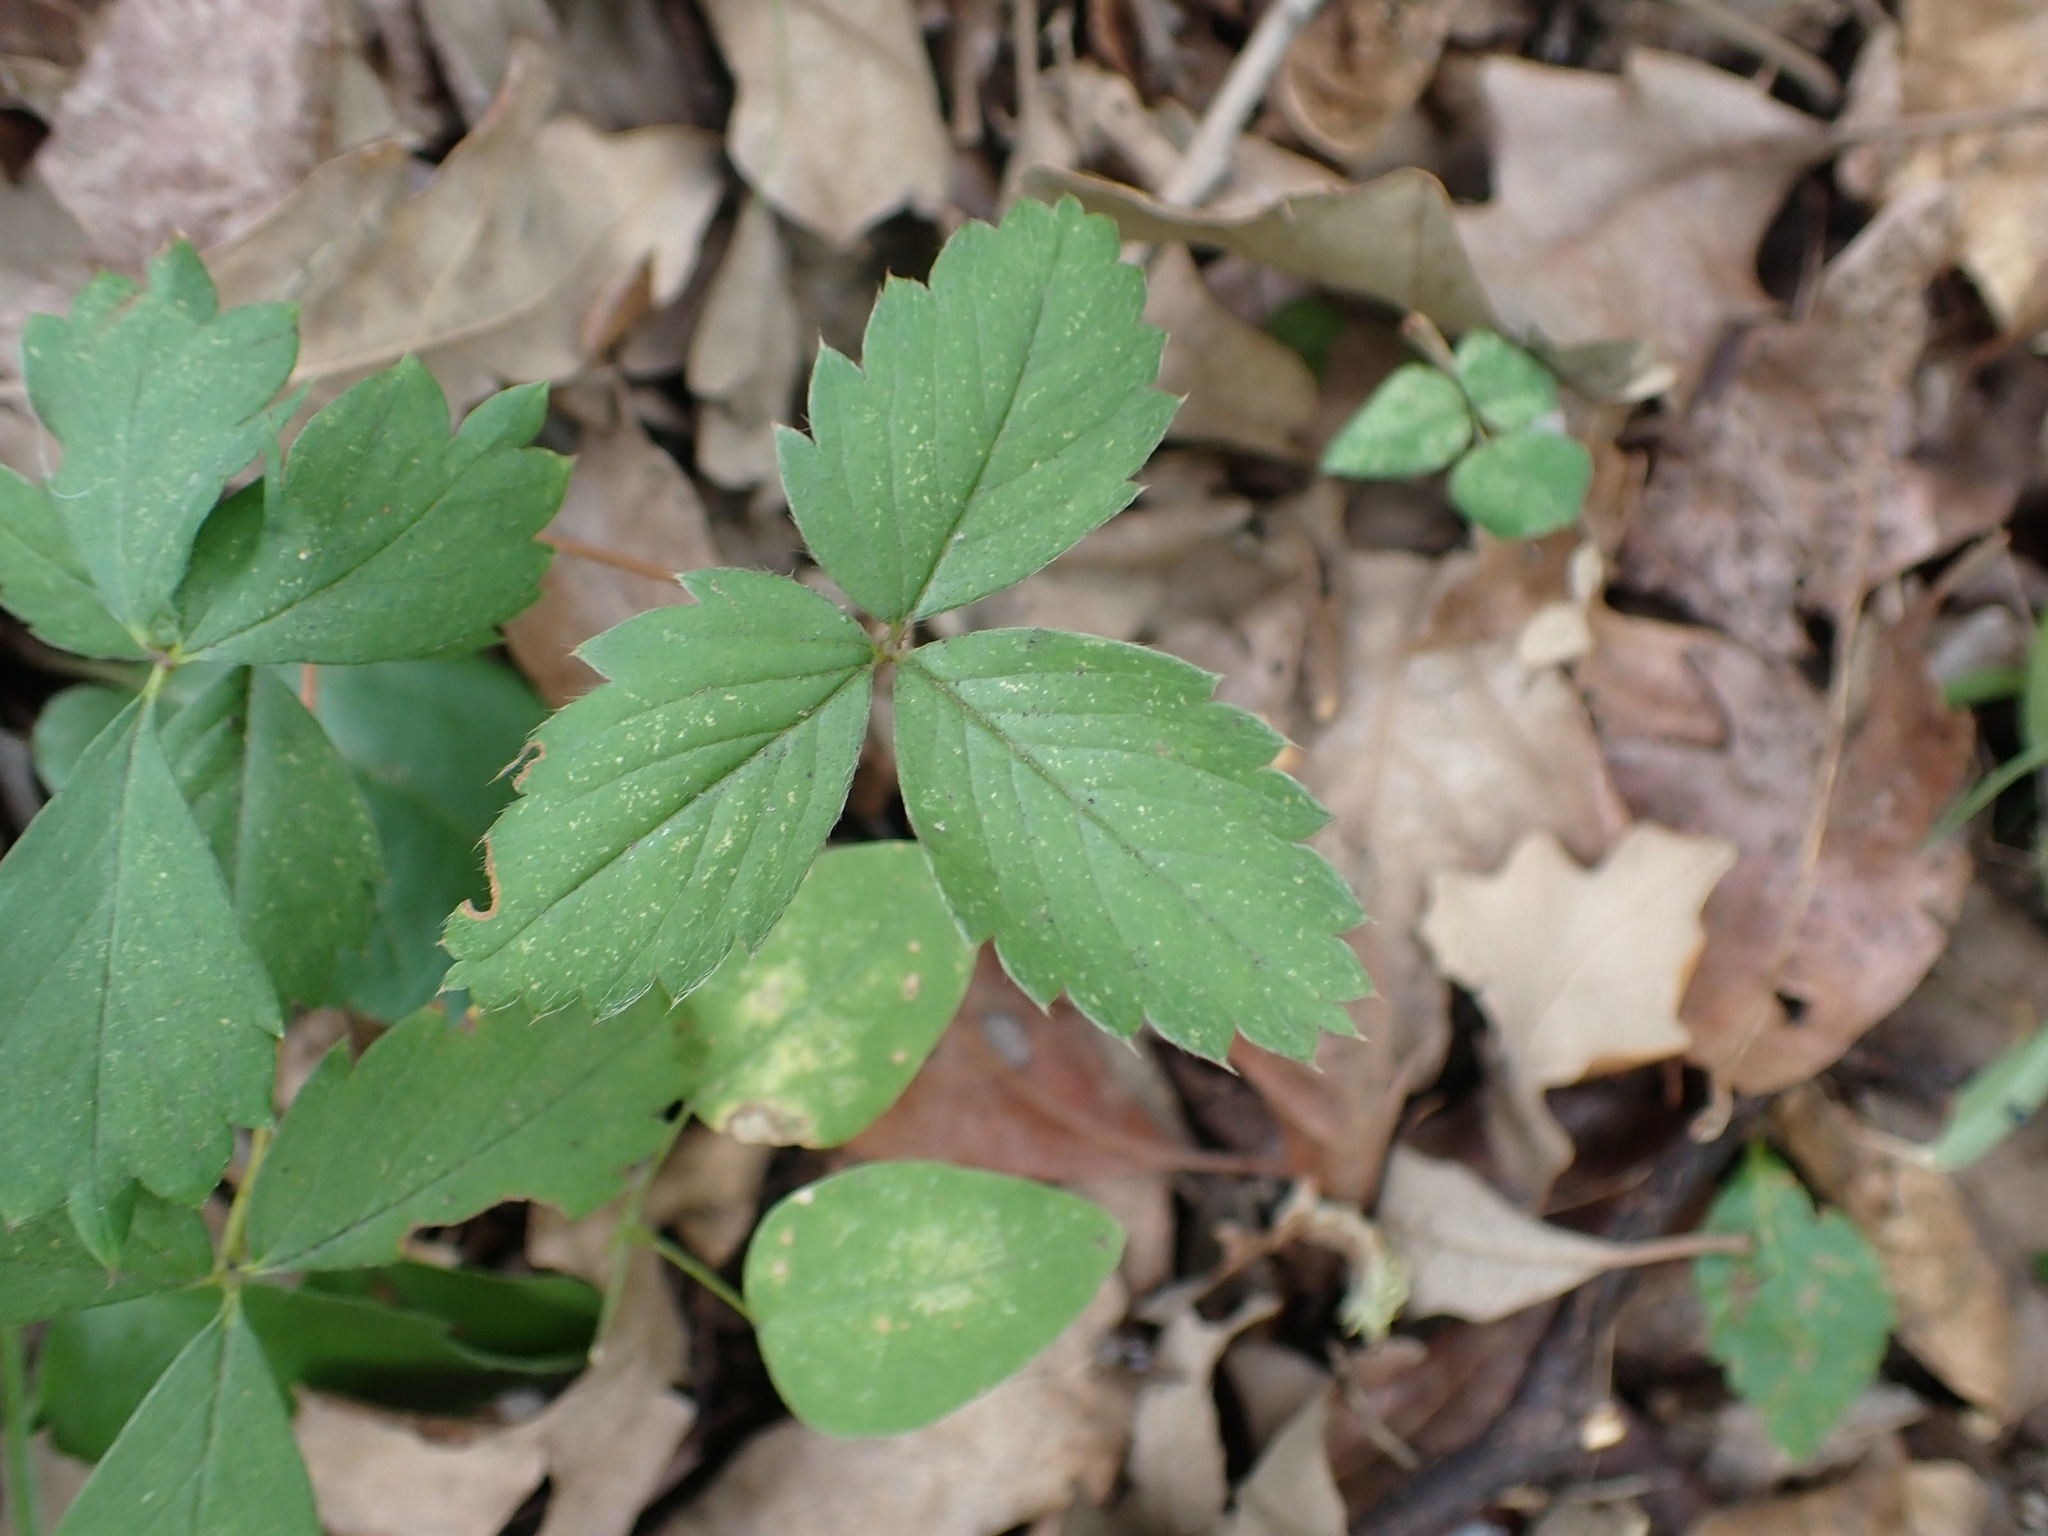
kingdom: Plantae
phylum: Tracheophyta
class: Magnoliopsida
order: Rosales
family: Rosaceae
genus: Fragaria
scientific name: Fragaria virginiana
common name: Thickleaved wild strawberry
